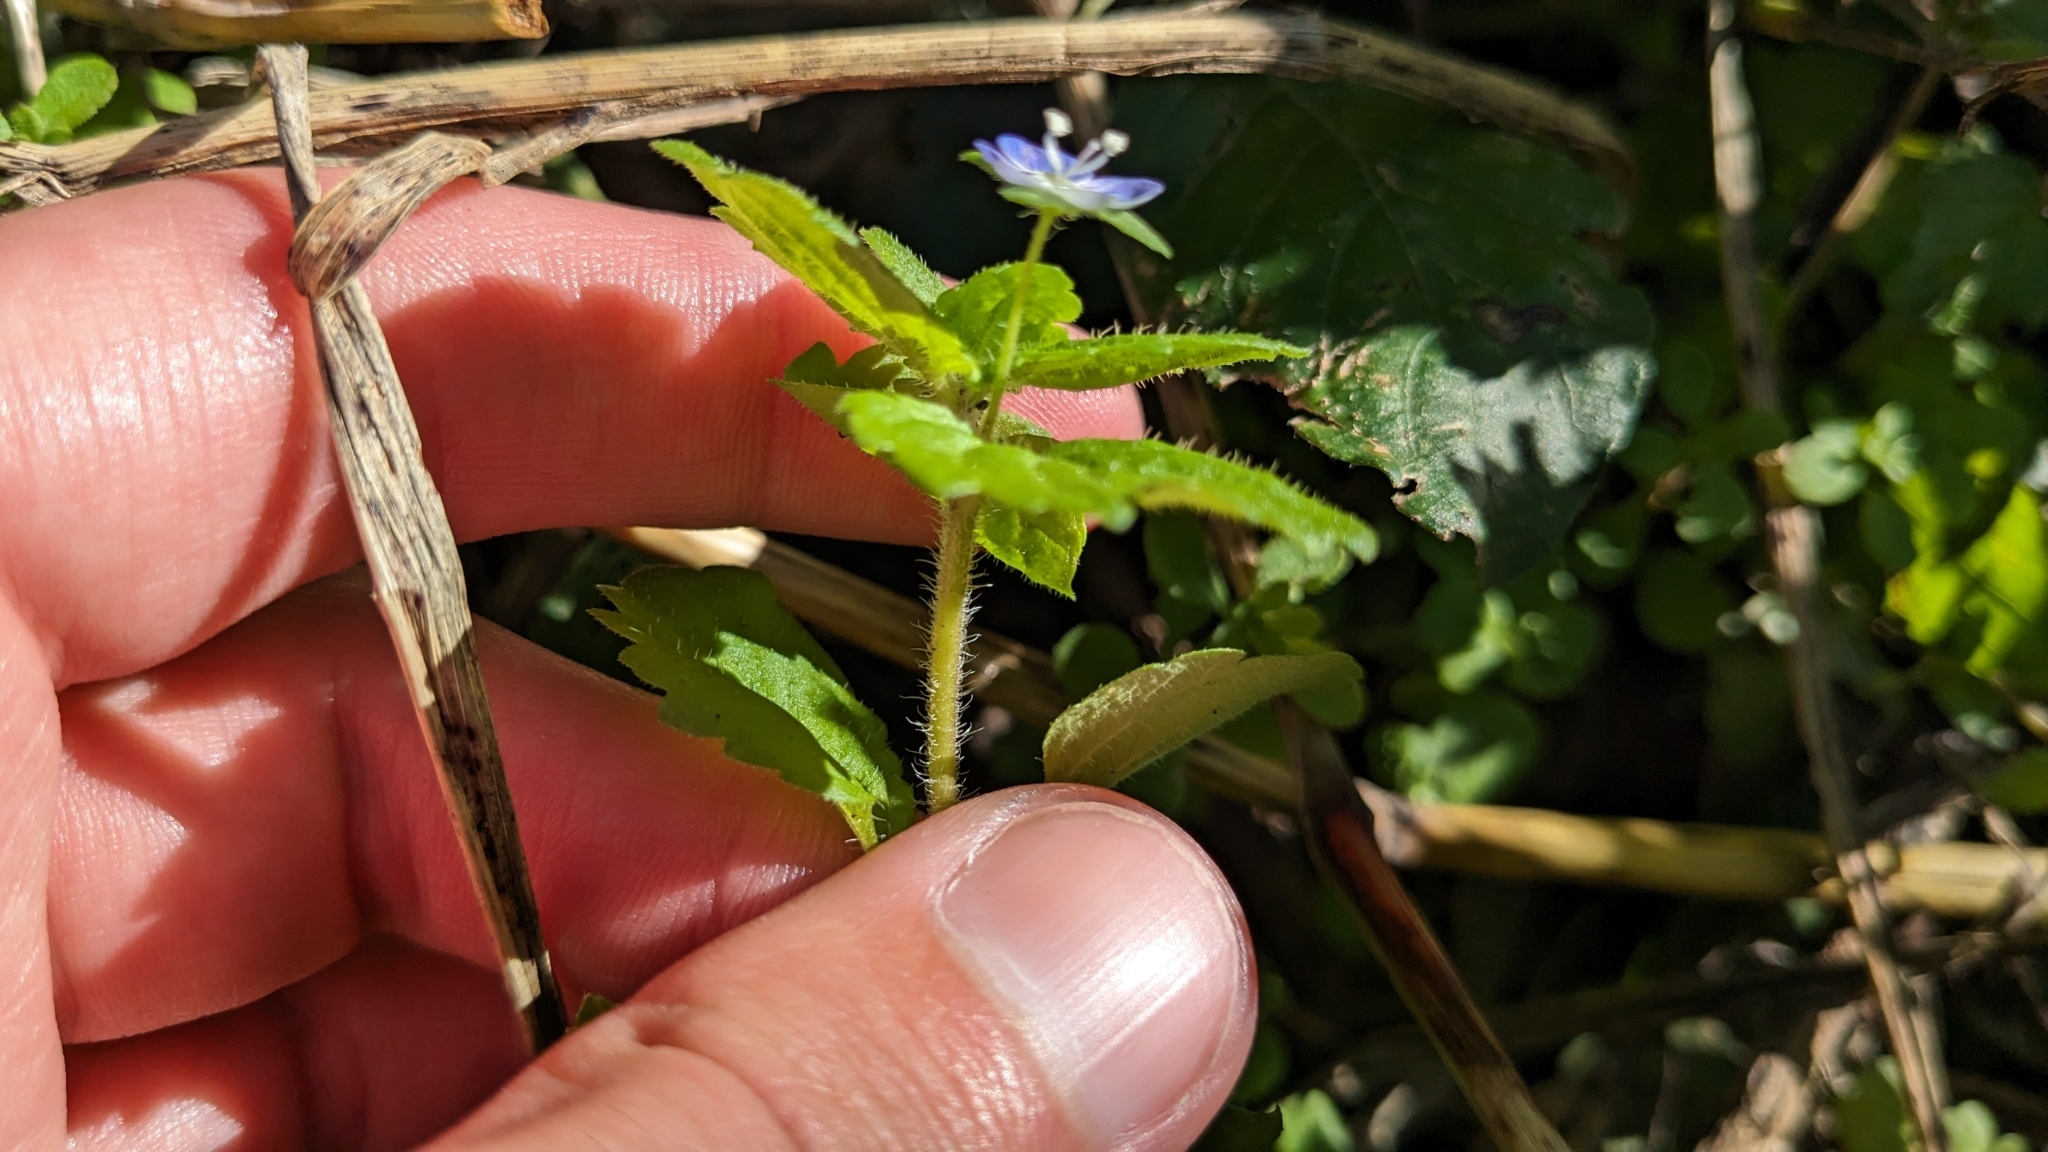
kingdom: Plantae
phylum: Tracheophyta
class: Magnoliopsida
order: Lamiales
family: Plantaginaceae
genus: Veronica
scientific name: Veronica persica
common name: Common field-speedwell
